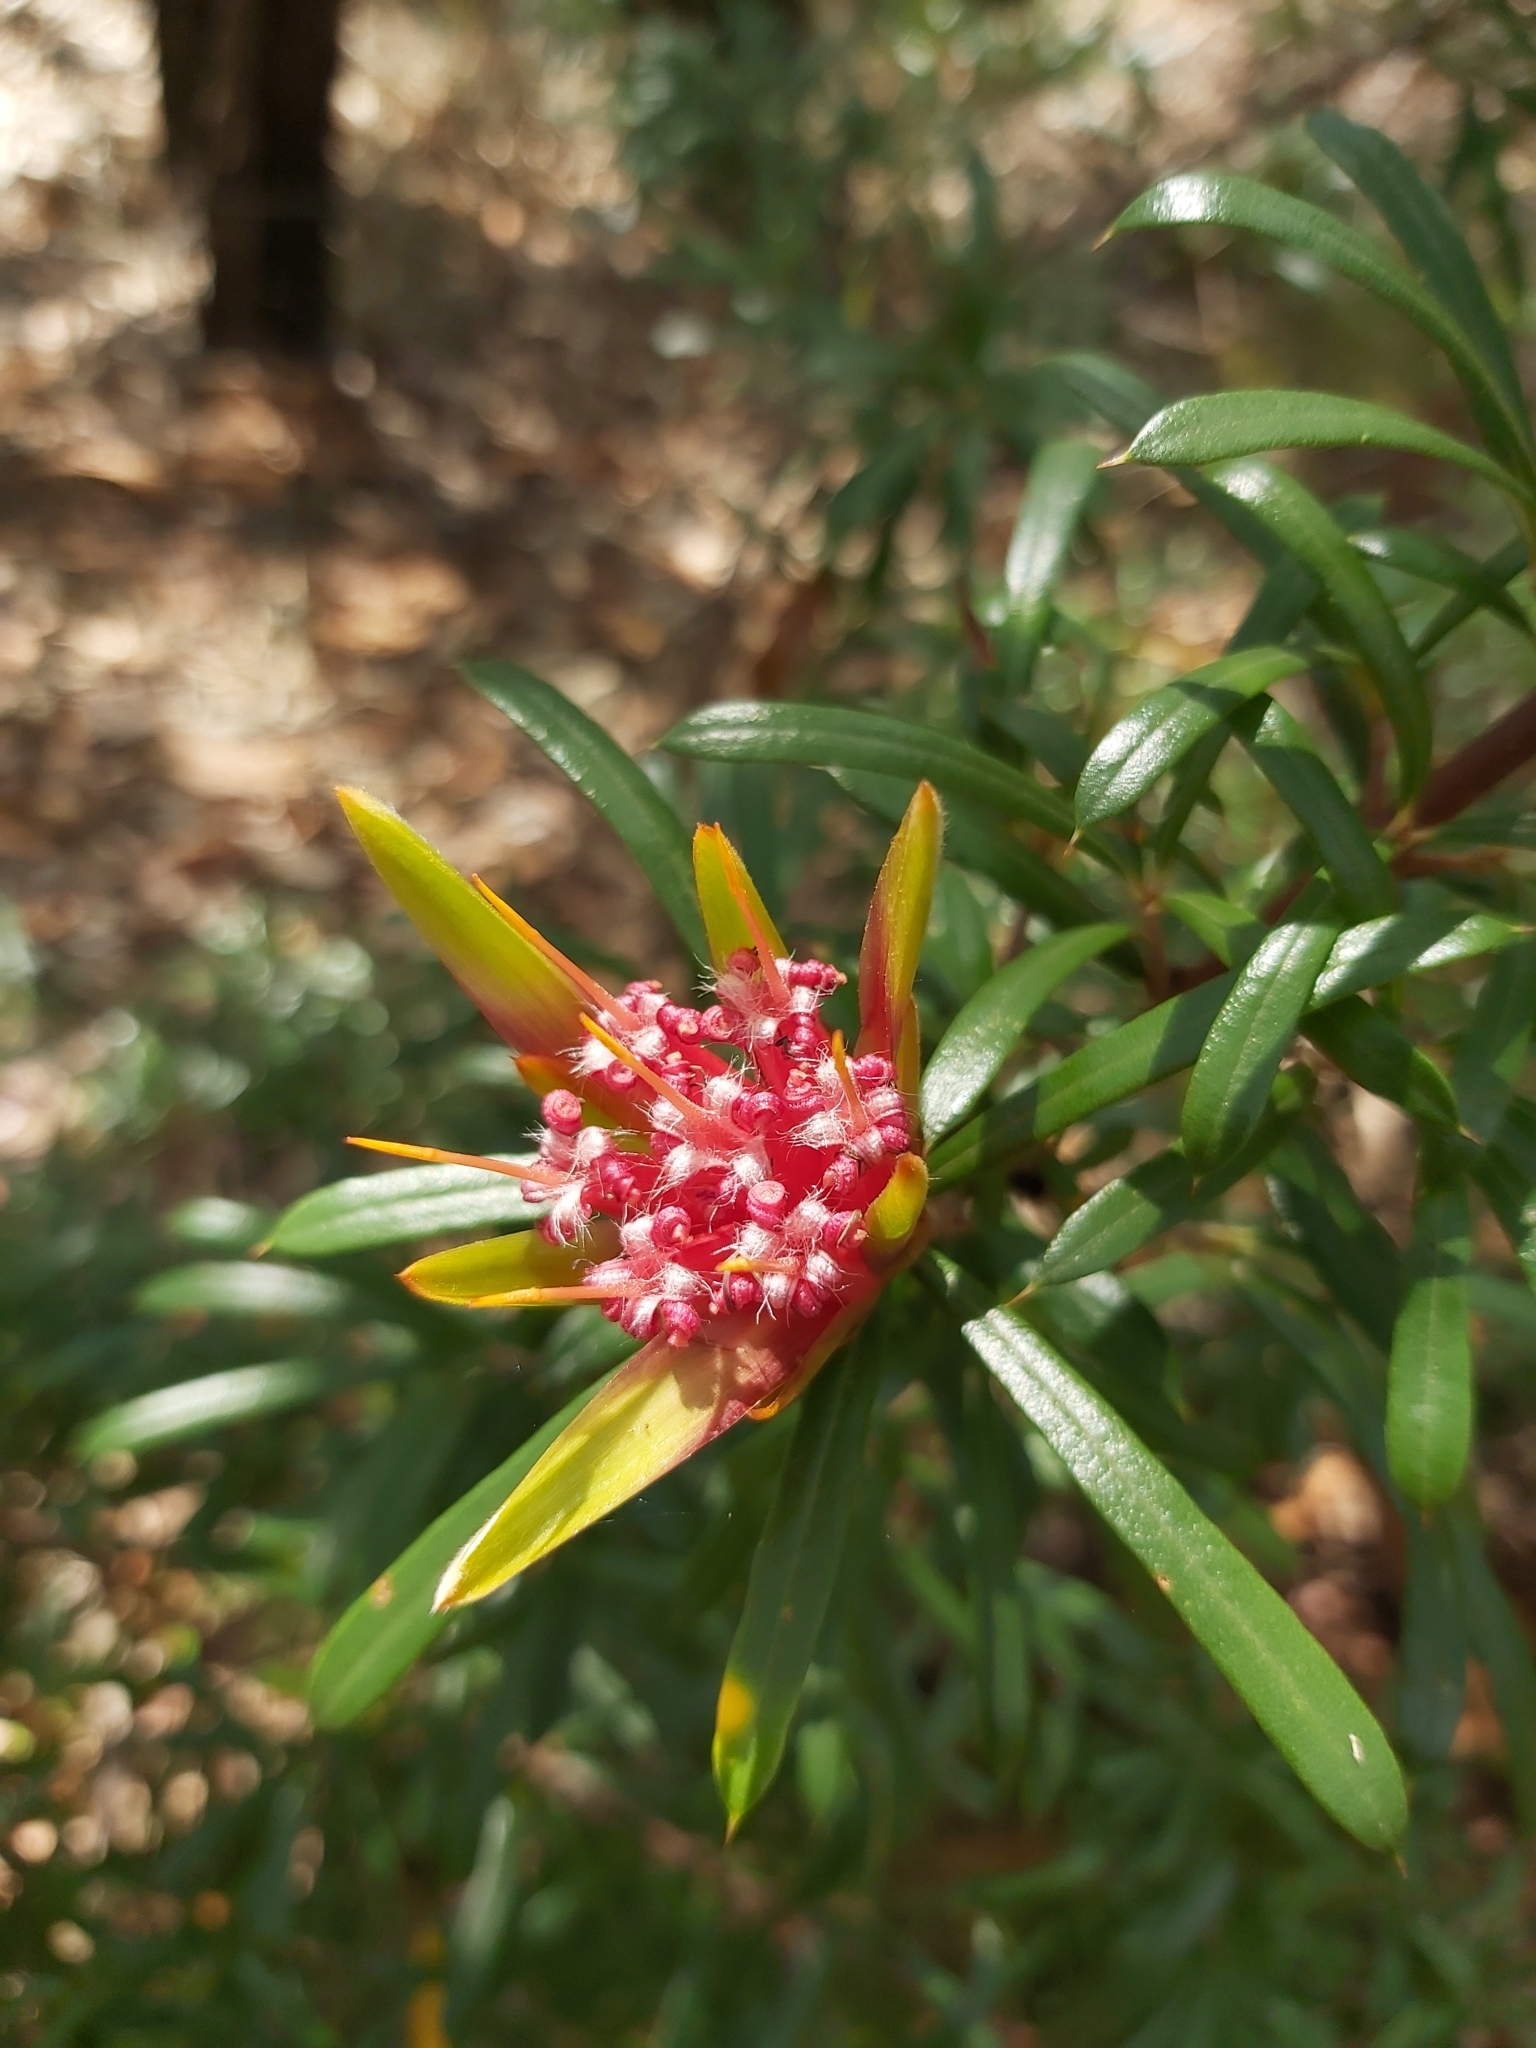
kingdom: Plantae
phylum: Tracheophyta
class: Magnoliopsida
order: Proteales
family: Proteaceae
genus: Lambertia
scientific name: Lambertia formosa
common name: Mountain-devil
